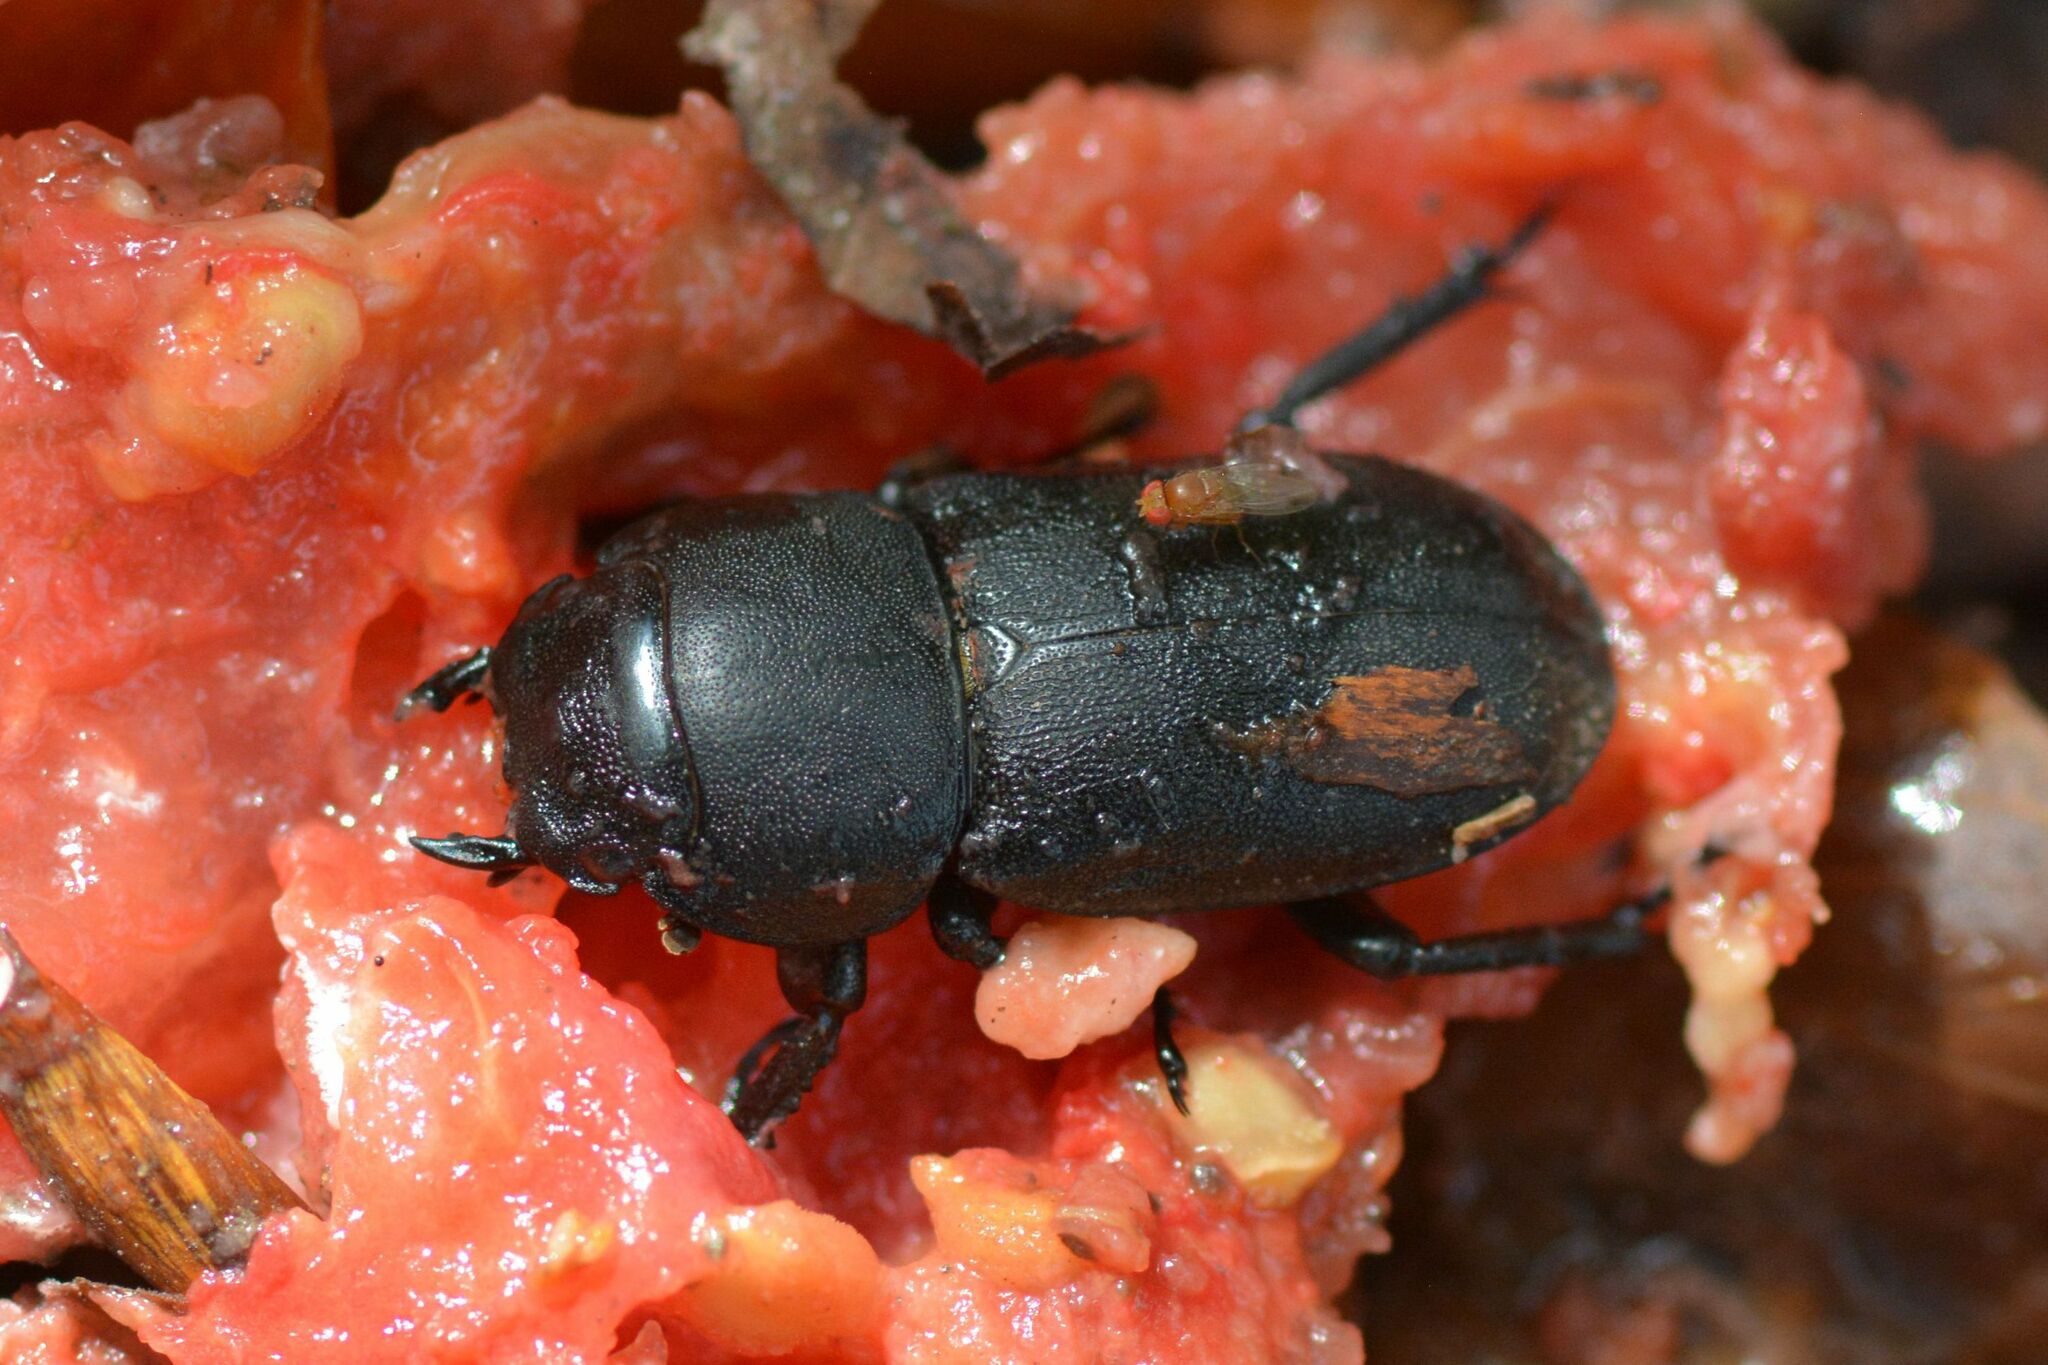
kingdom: Animalia
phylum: Arthropoda
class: Insecta
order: Coleoptera
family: Lucanidae
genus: Dorcus
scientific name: Dorcus parallelipipedus
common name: Lesser stag beetle
